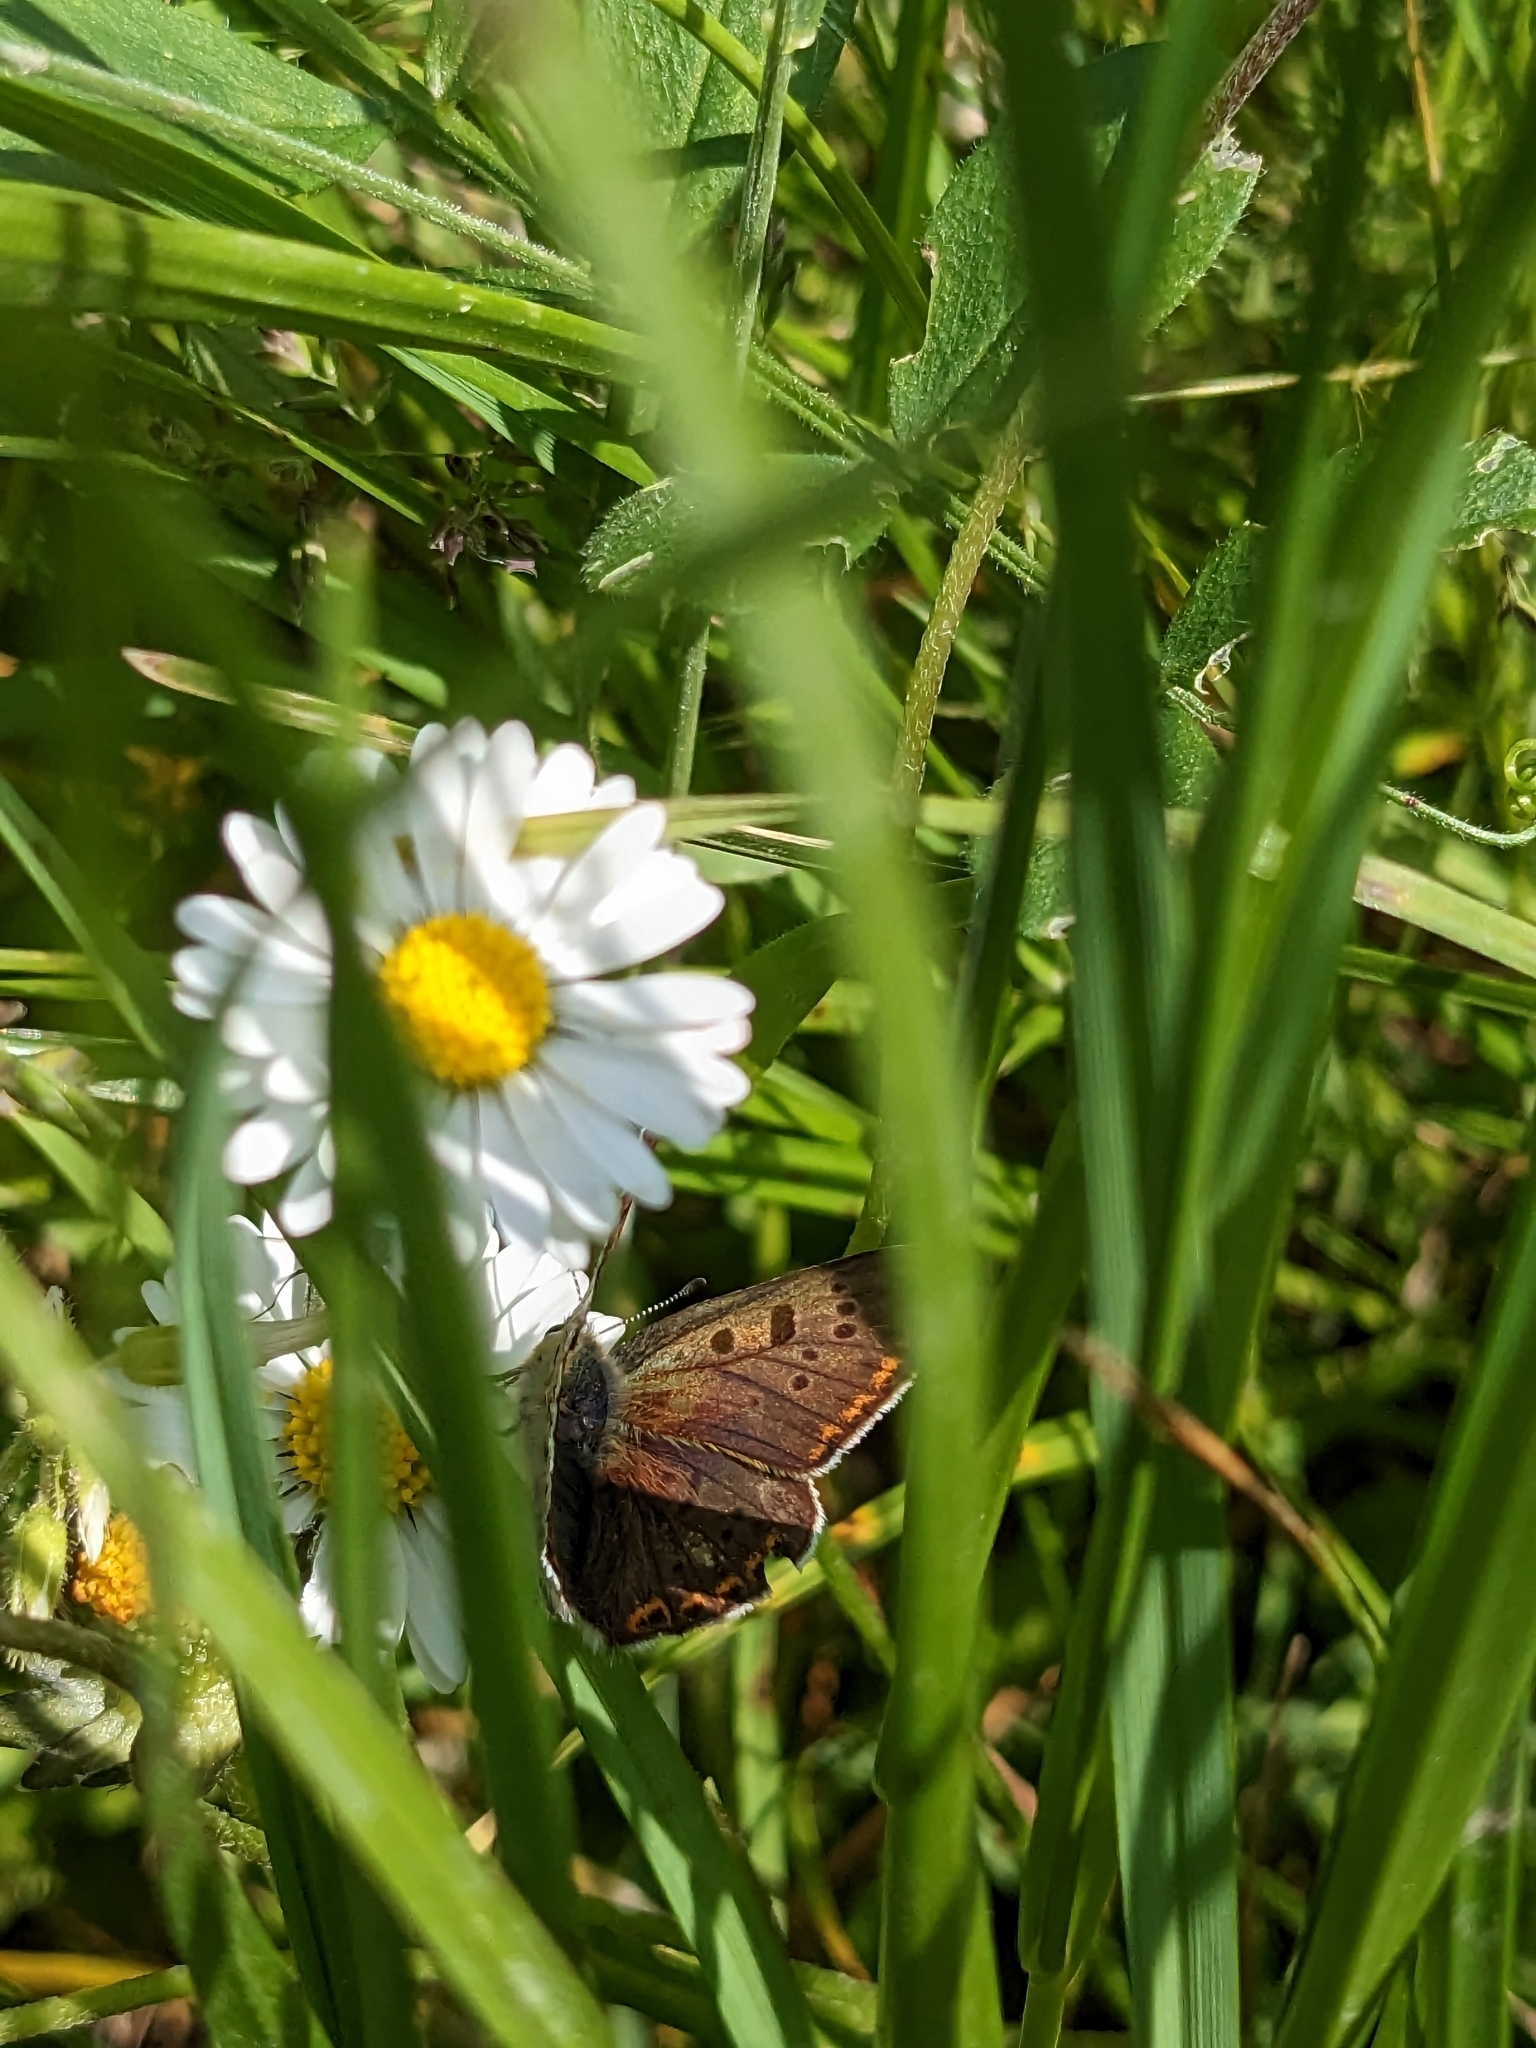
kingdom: Animalia
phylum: Arthropoda
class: Insecta
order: Lepidoptera
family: Lycaenidae
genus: Loweia
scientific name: Loweia tityrus
